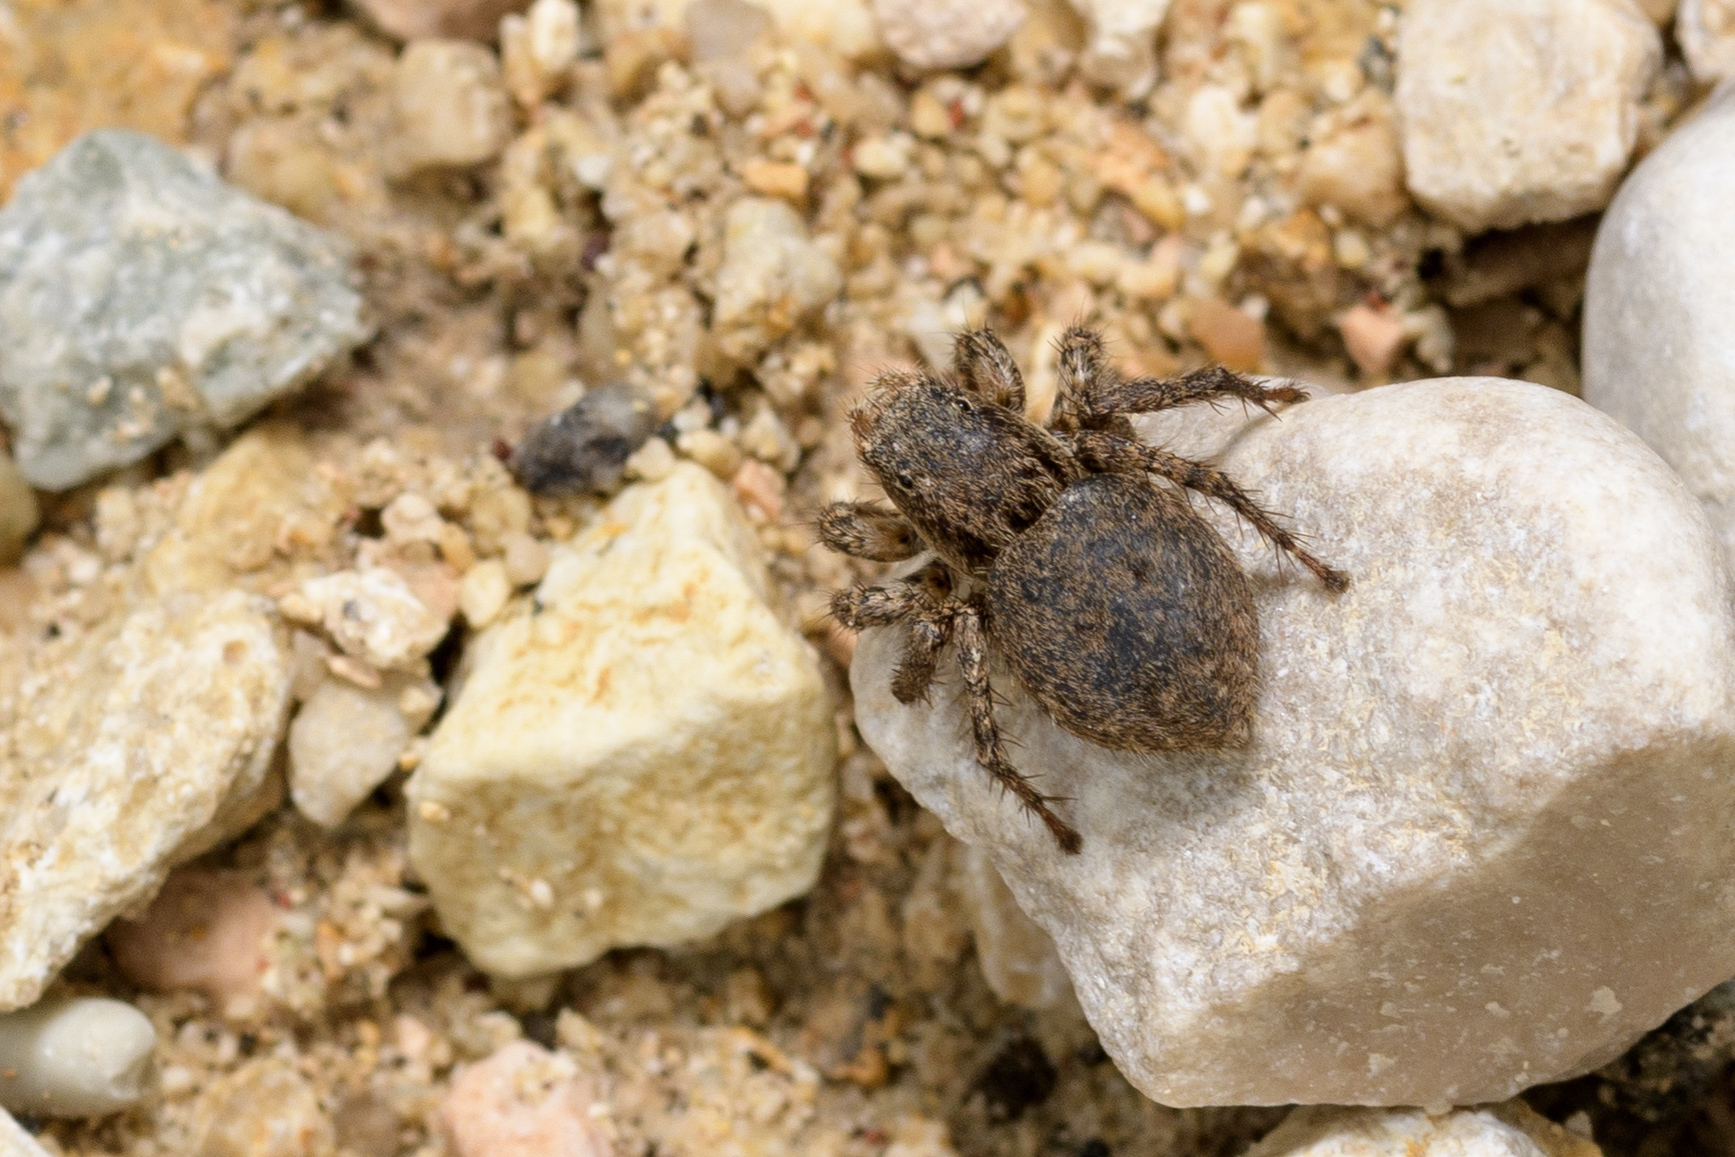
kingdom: Animalia
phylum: Arthropoda
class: Arachnida
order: Araneae
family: Salticidae
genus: Asianellus
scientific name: Asianellus festivus
